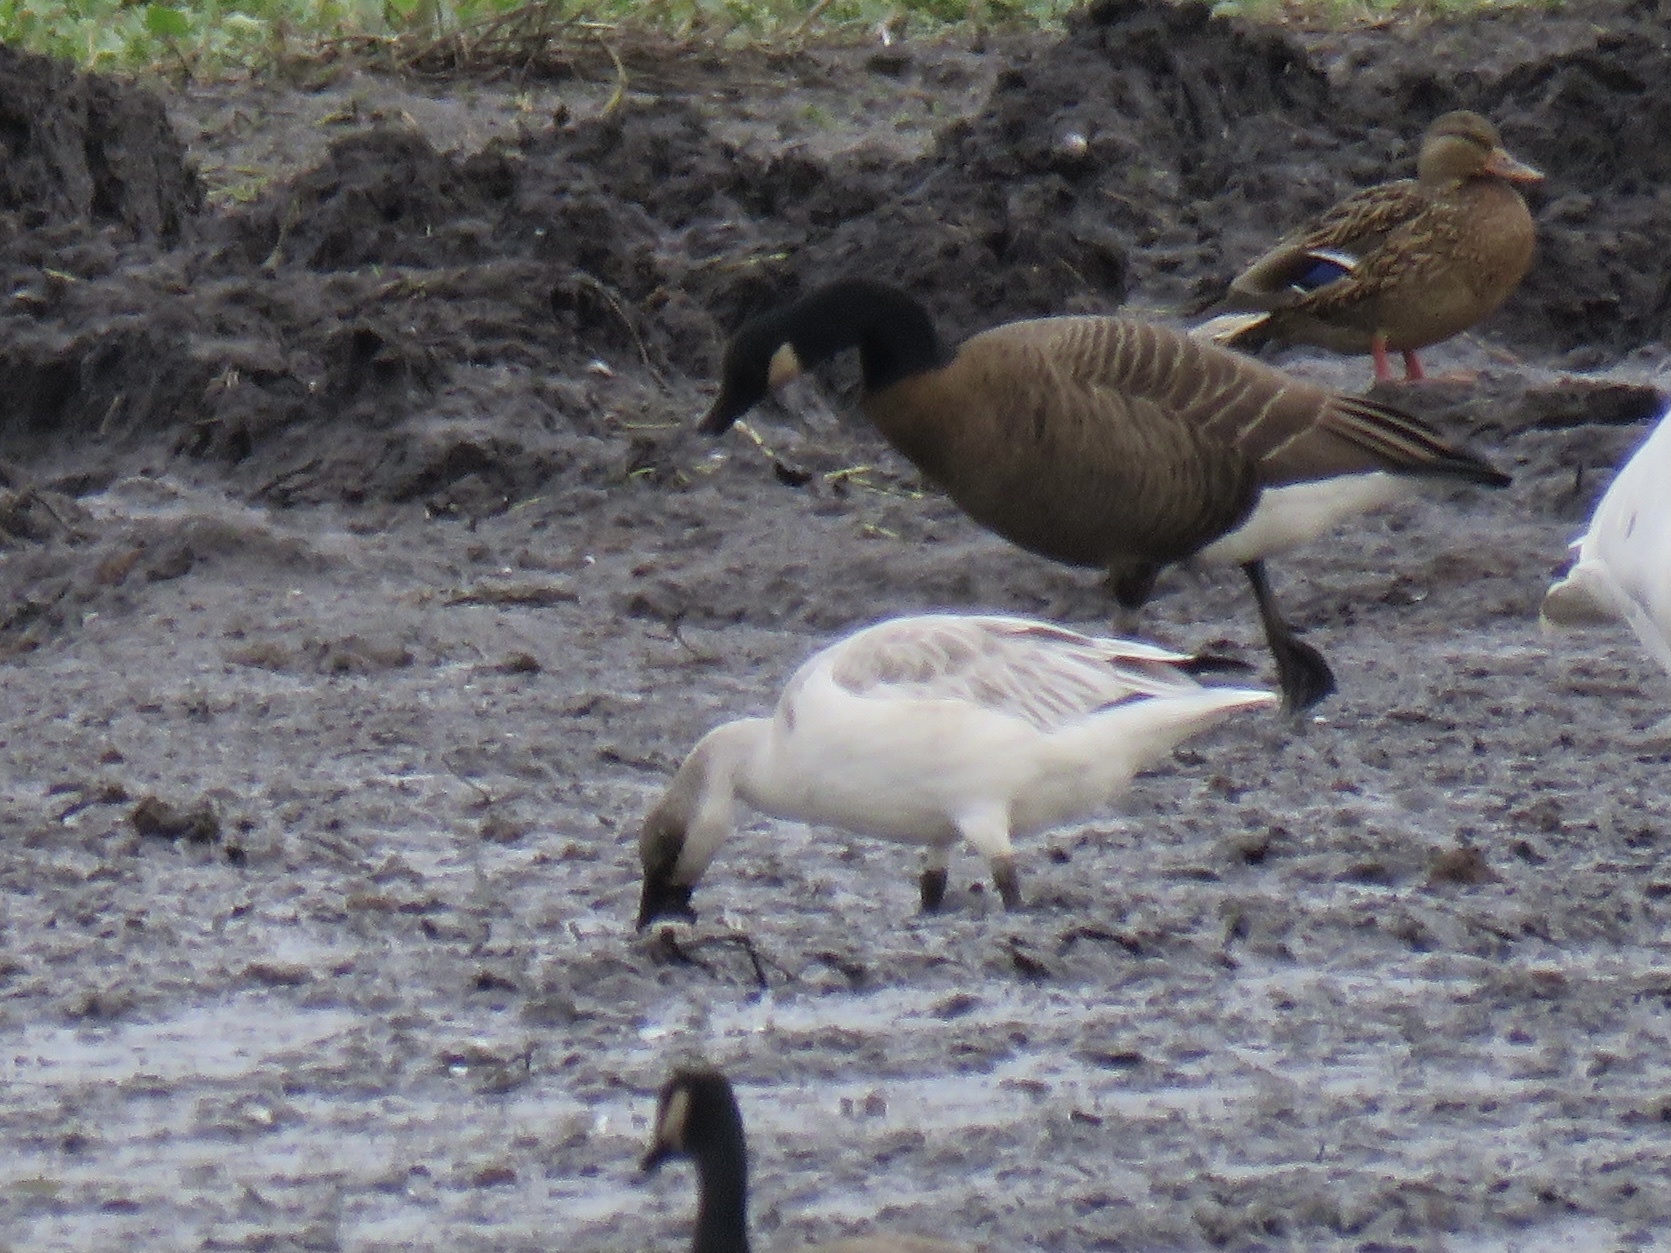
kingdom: Animalia
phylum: Chordata
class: Aves
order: Anseriformes
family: Anatidae
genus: Anser
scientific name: Anser caerulescens
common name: Snow goose
